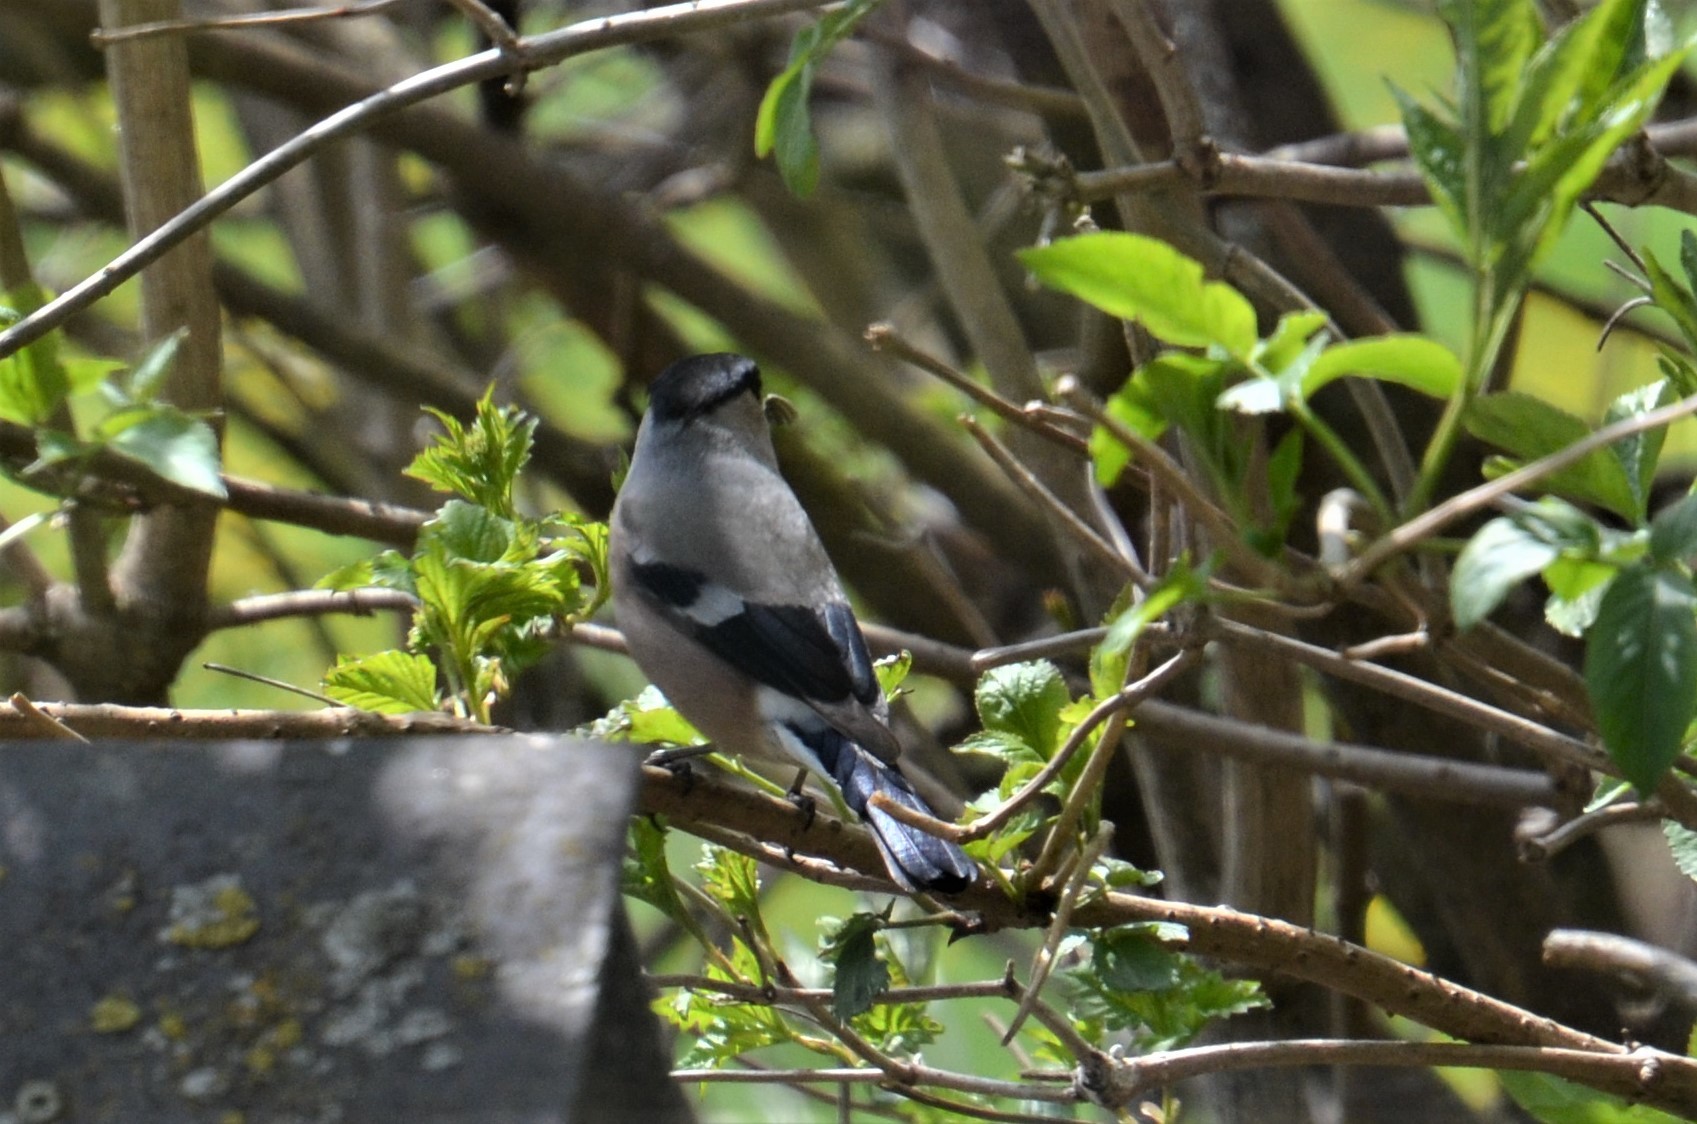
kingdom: Animalia
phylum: Chordata
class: Aves
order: Passeriformes
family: Fringillidae
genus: Pyrrhula
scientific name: Pyrrhula pyrrhula
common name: Eurasian bullfinch
